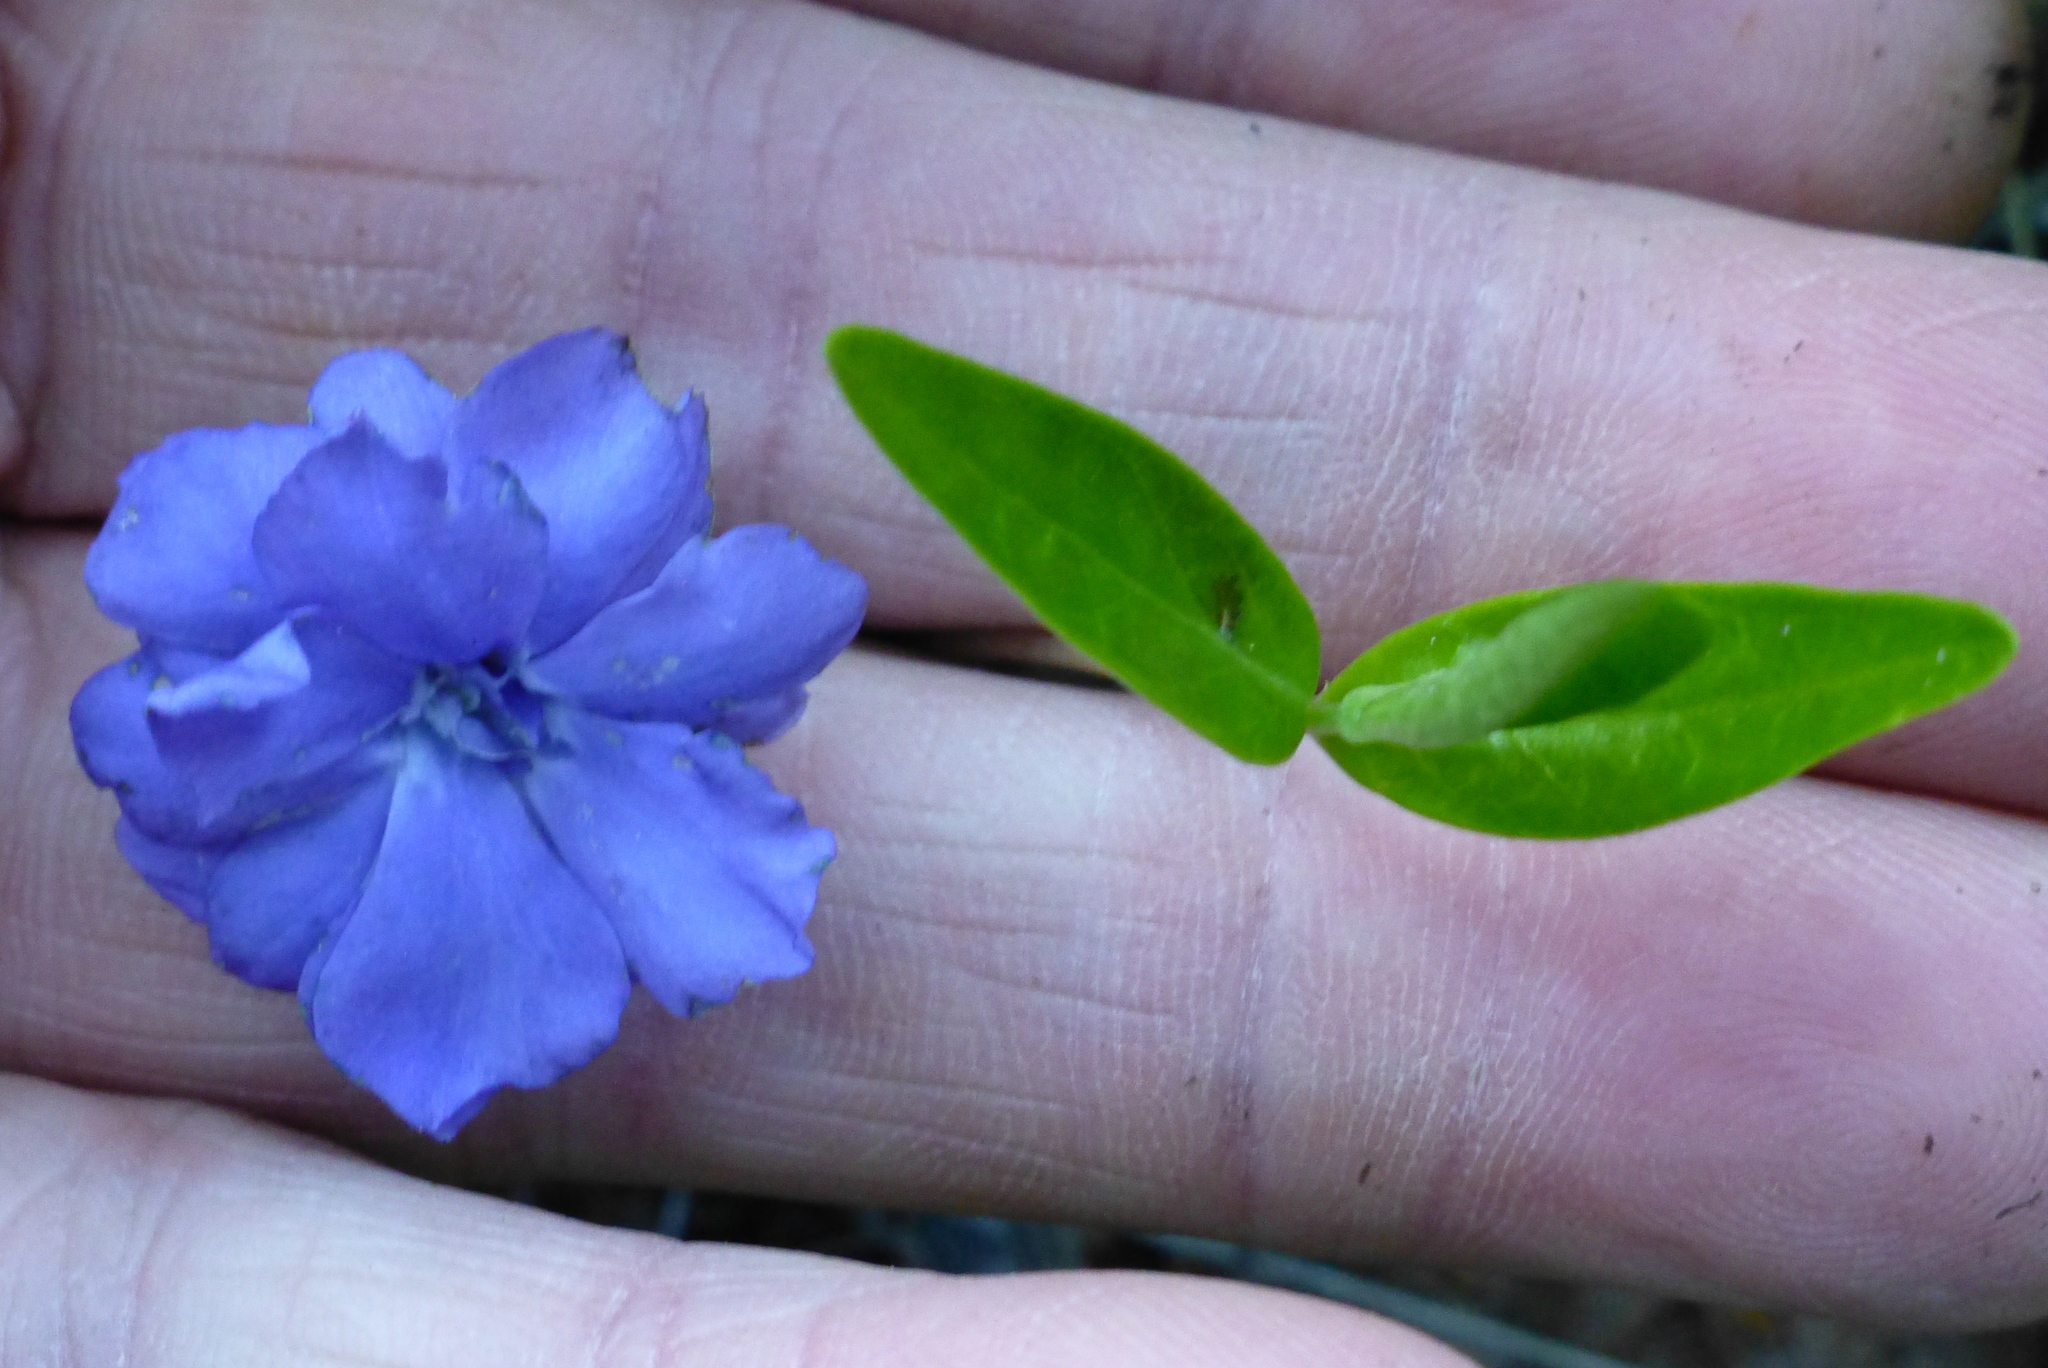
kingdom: Plantae
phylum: Tracheophyta
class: Magnoliopsida
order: Gentianales
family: Apocynaceae
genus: Vinca
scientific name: Vinca minor
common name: Lesser periwinkle
